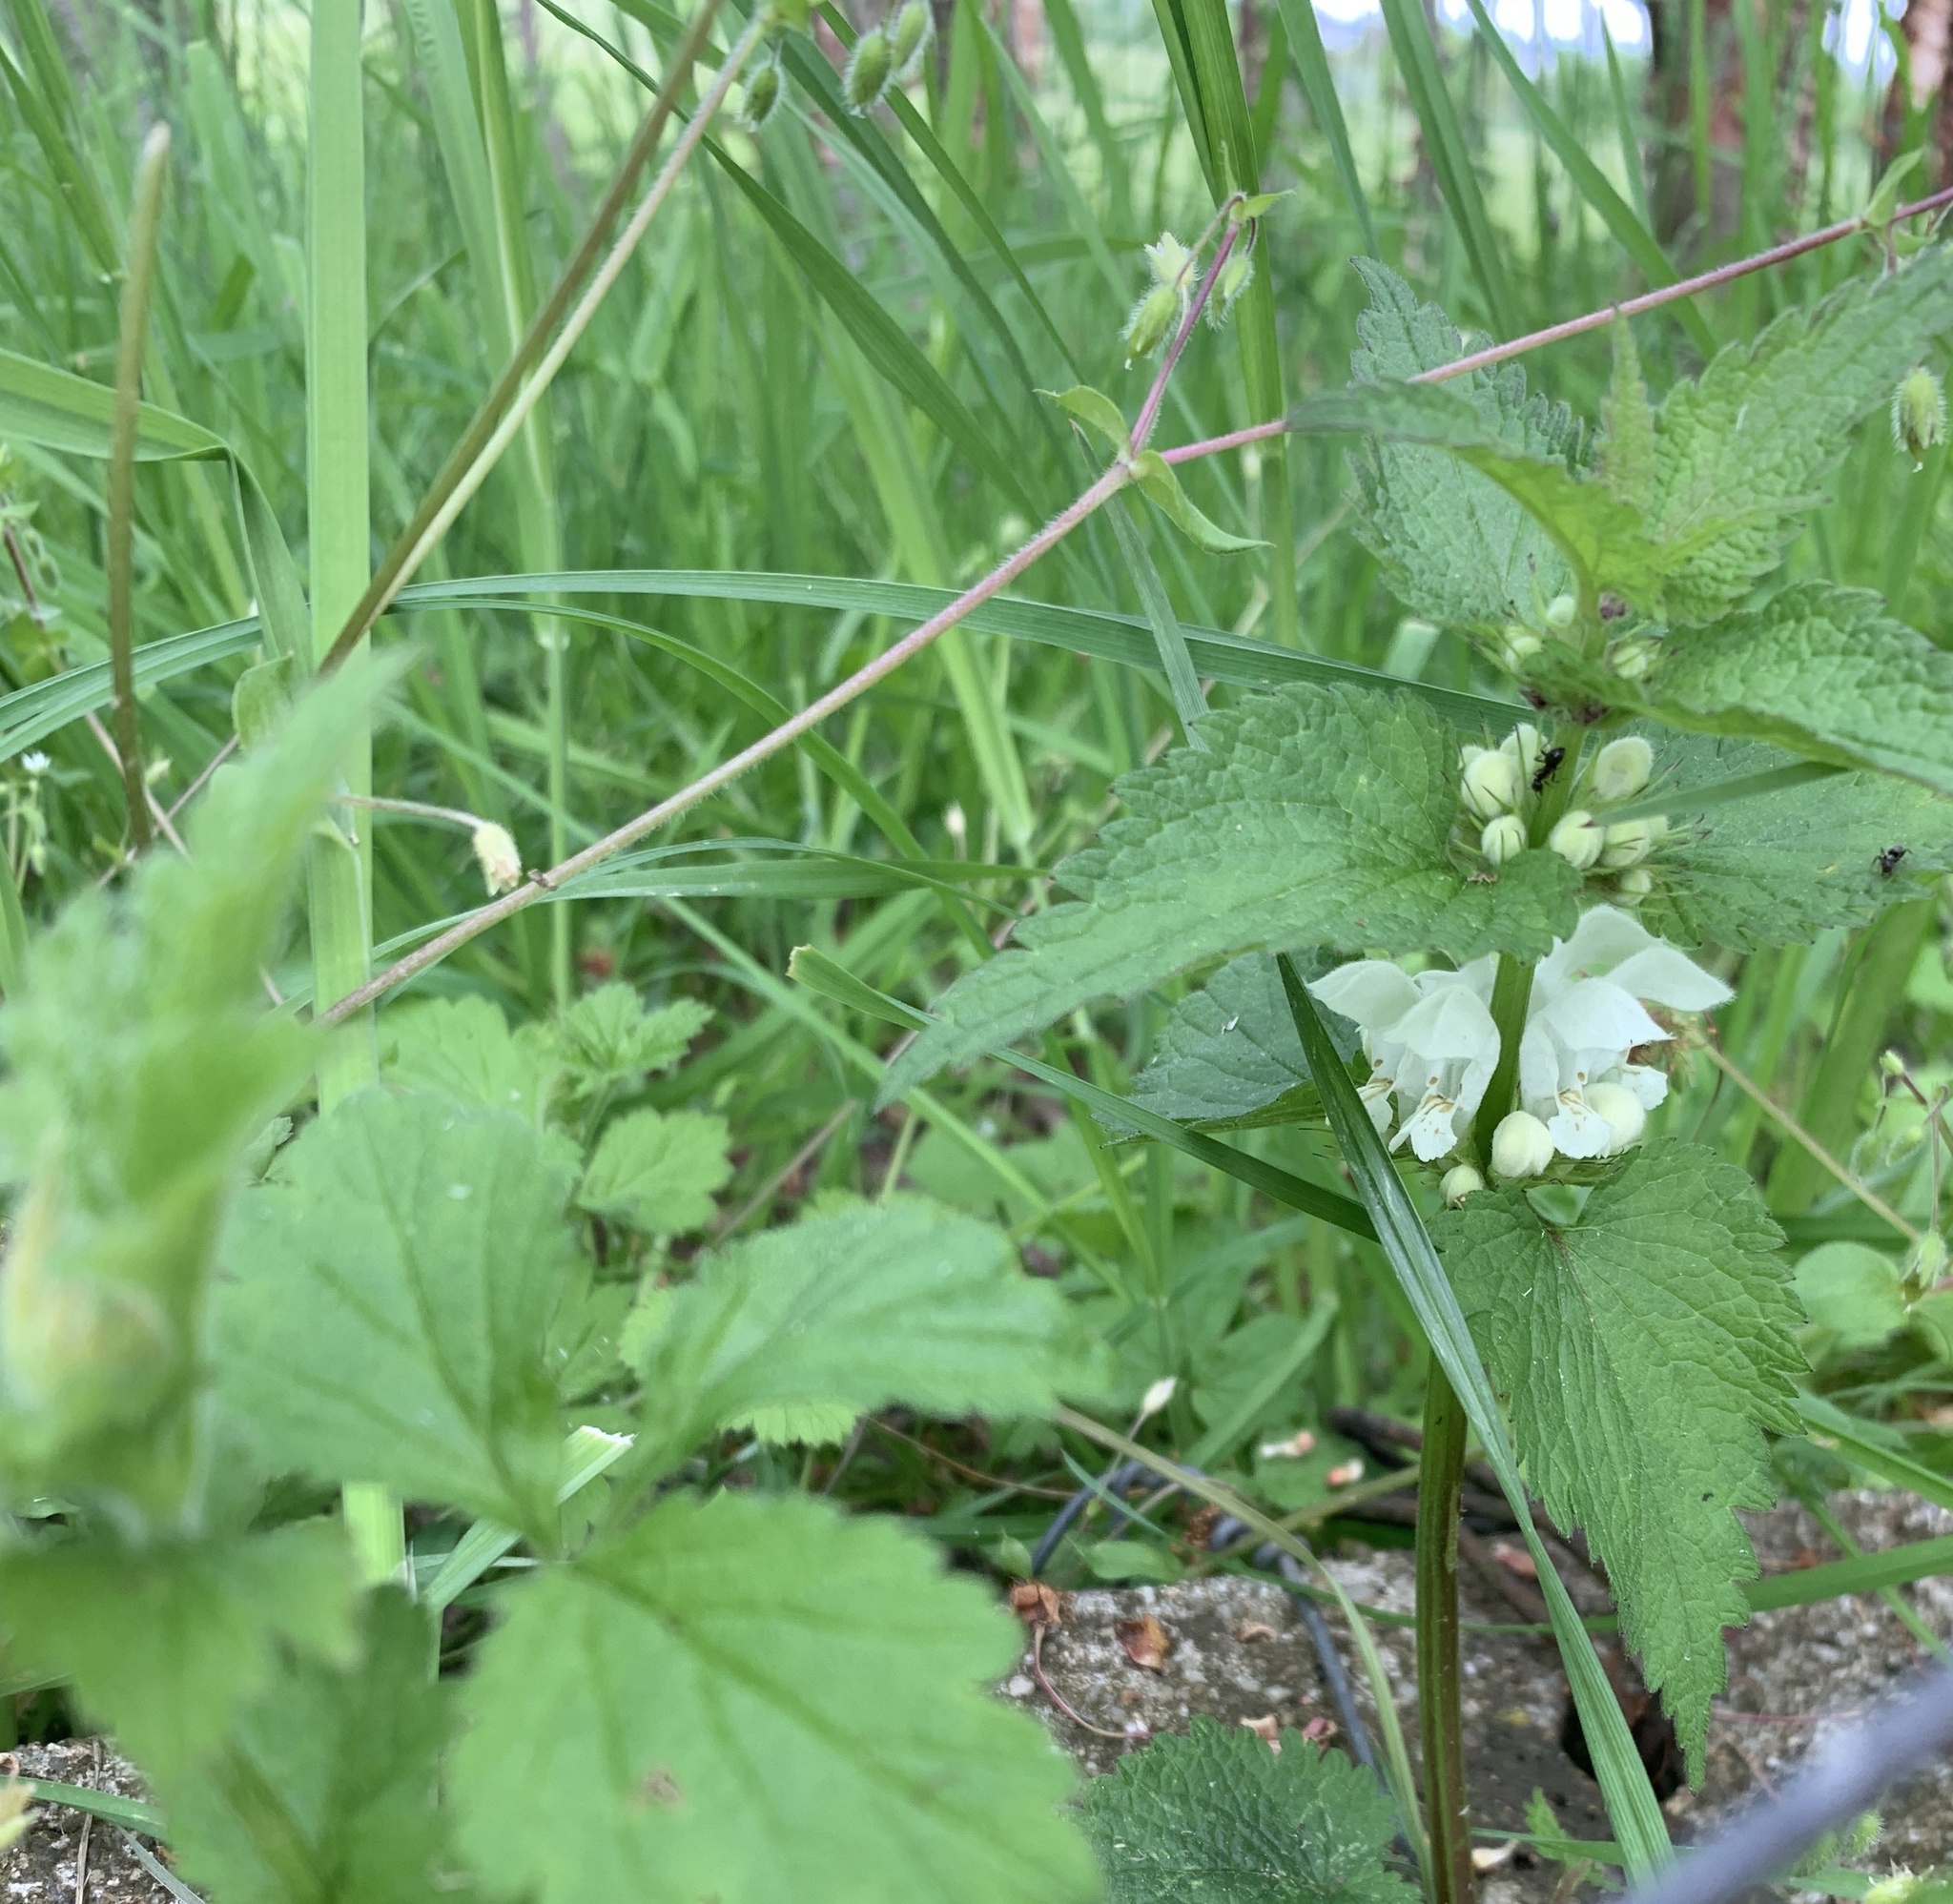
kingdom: Plantae
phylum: Tracheophyta
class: Magnoliopsida
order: Lamiales
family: Lamiaceae
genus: Lamium
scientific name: Lamium album
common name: White dead-nettle
